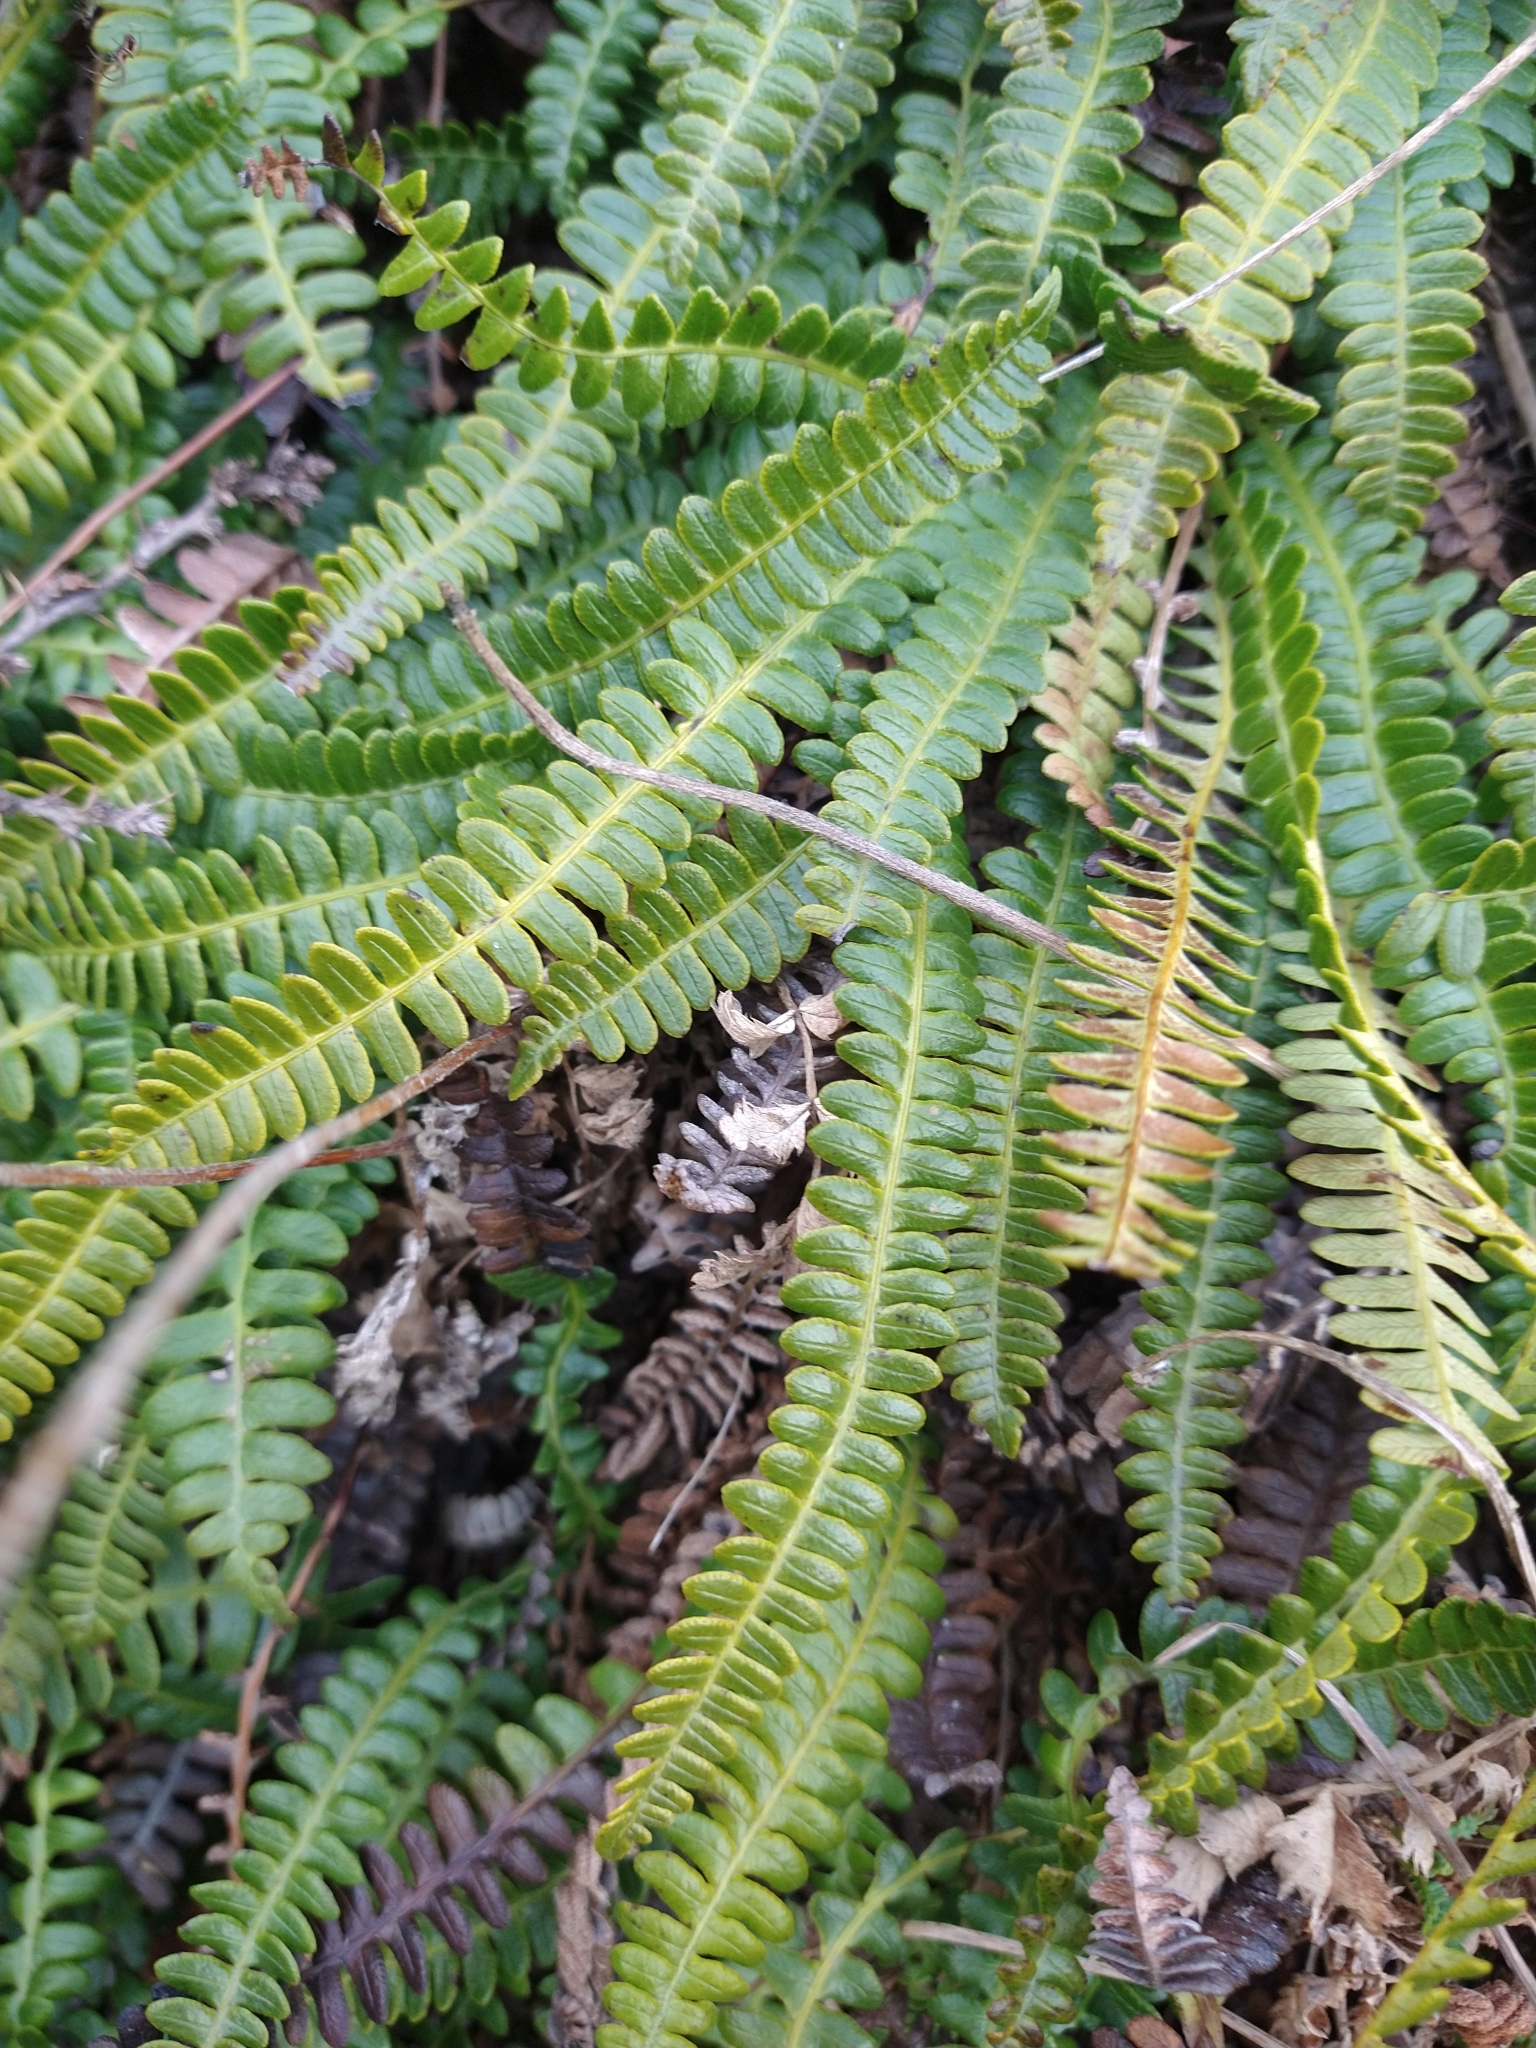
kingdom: Plantae
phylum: Tracheophyta
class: Polypodiopsida
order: Polypodiales
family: Blechnaceae
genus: Austroblechnum
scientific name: Austroblechnum penna-marina
